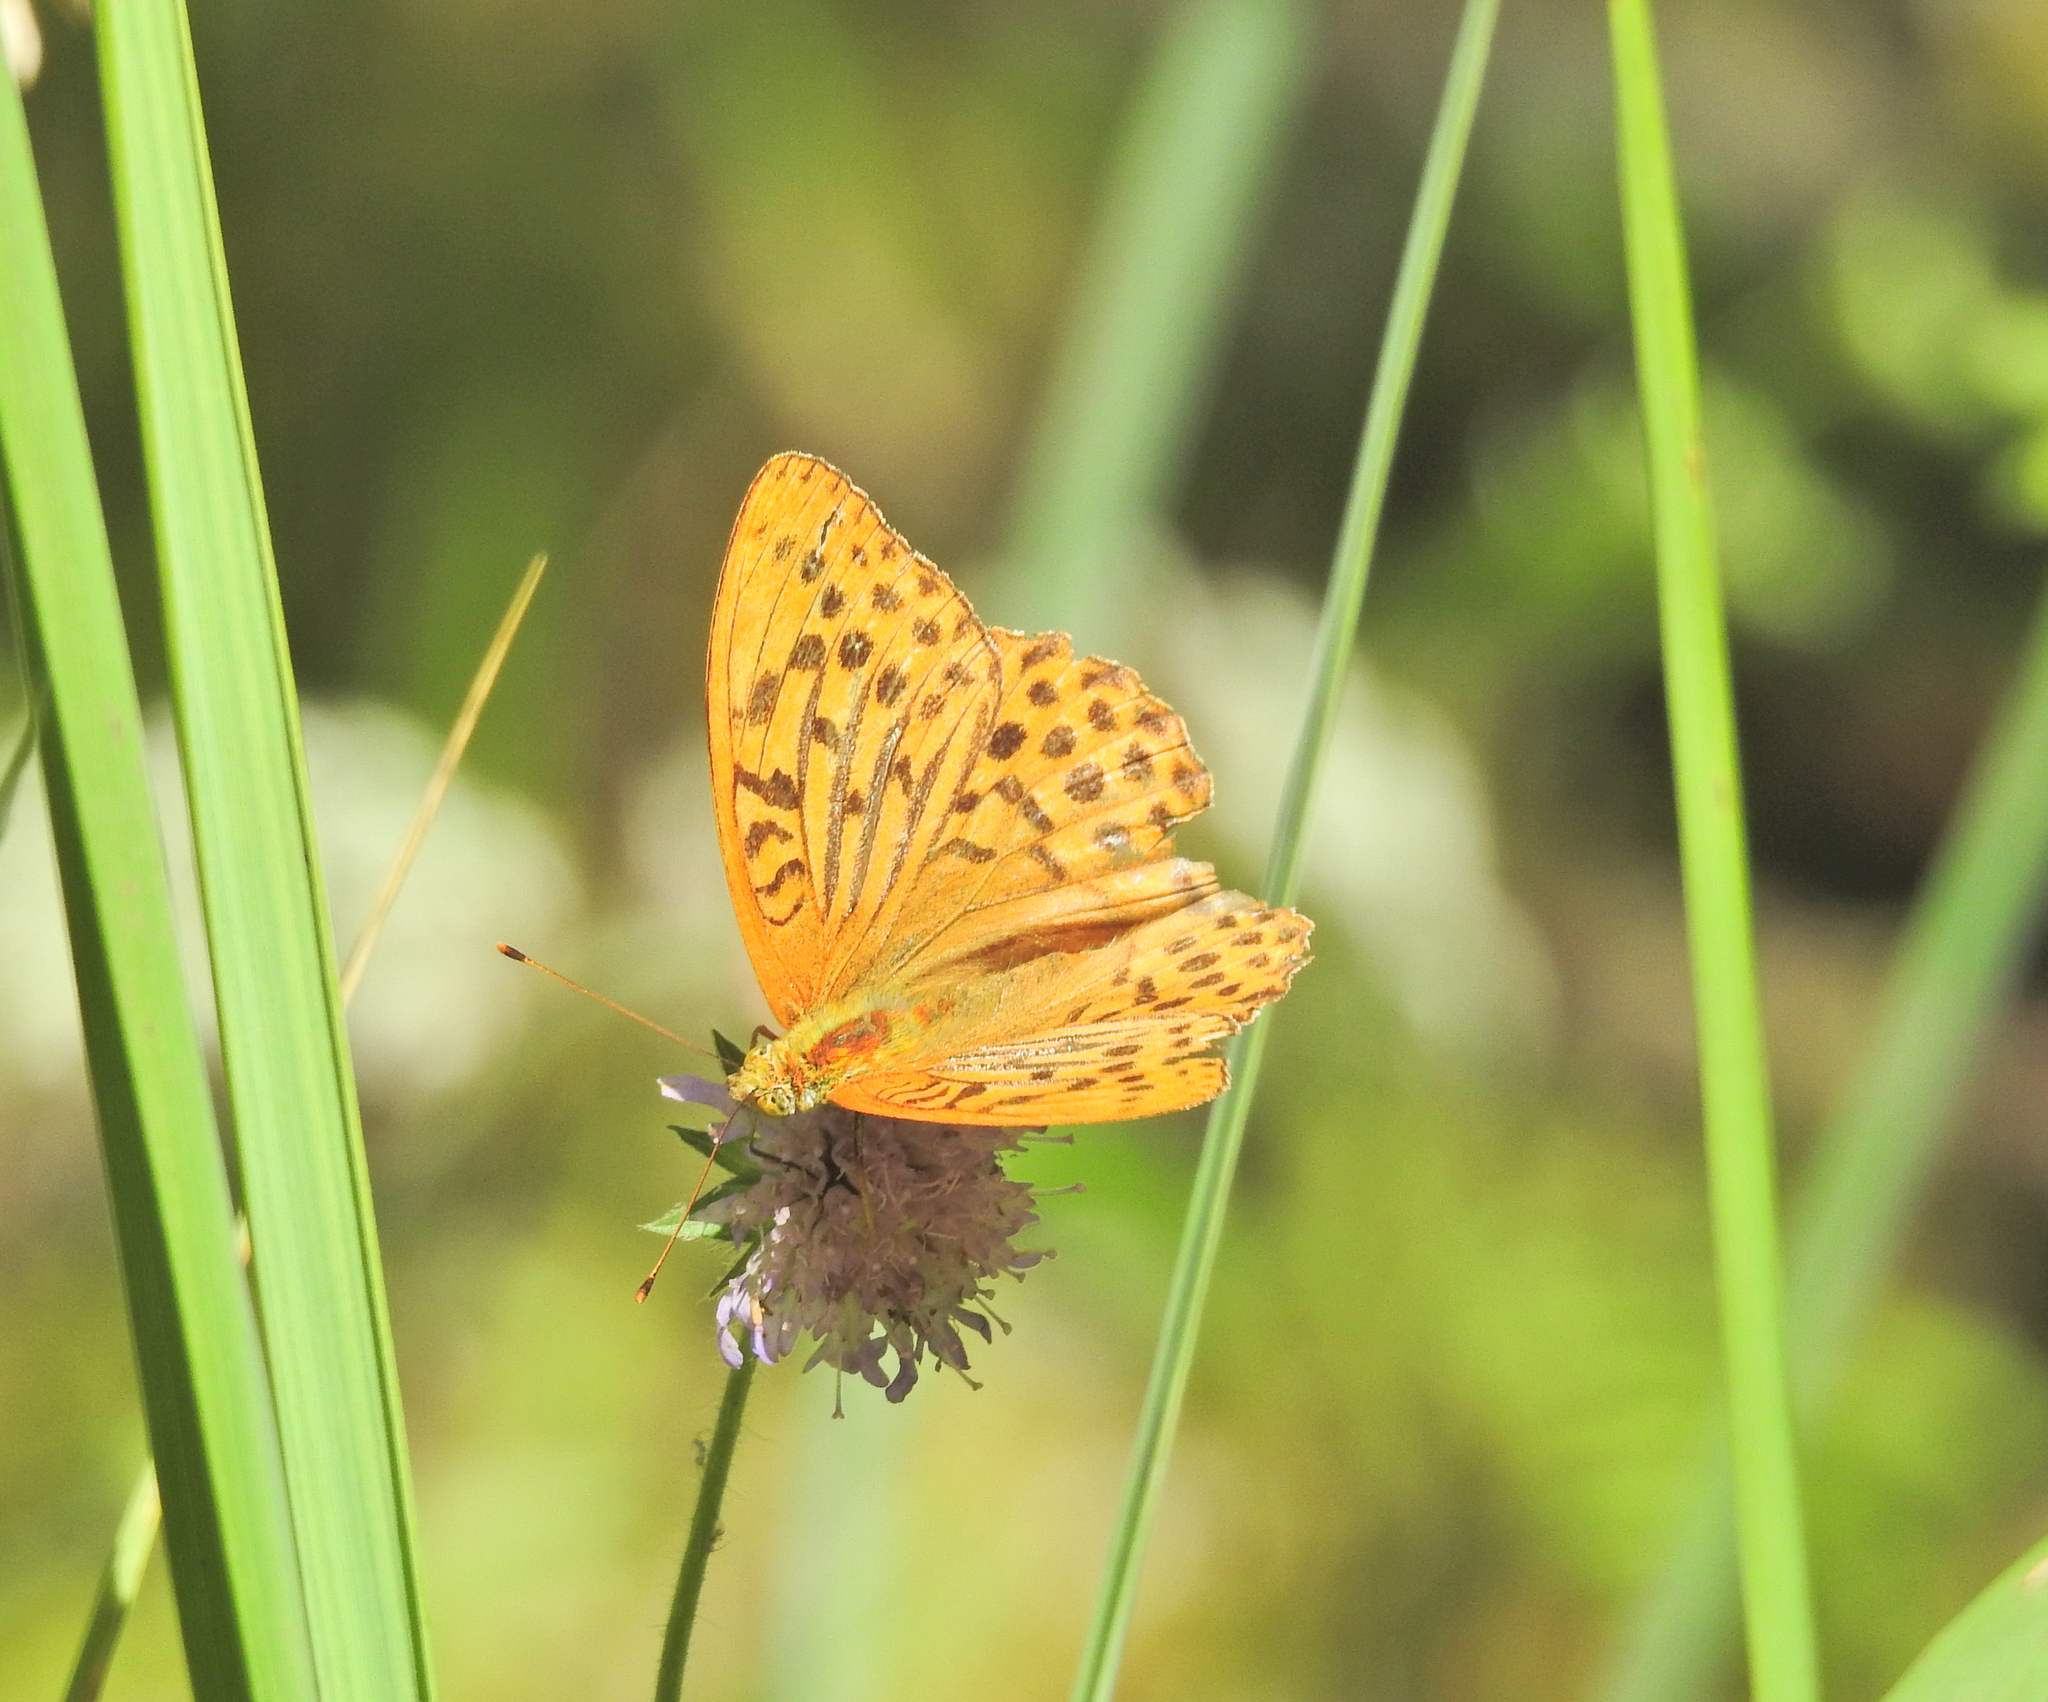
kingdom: Animalia
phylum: Arthropoda
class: Insecta
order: Lepidoptera
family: Nymphalidae
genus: Argynnis
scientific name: Argynnis paphia
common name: Silver-washed fritillary
